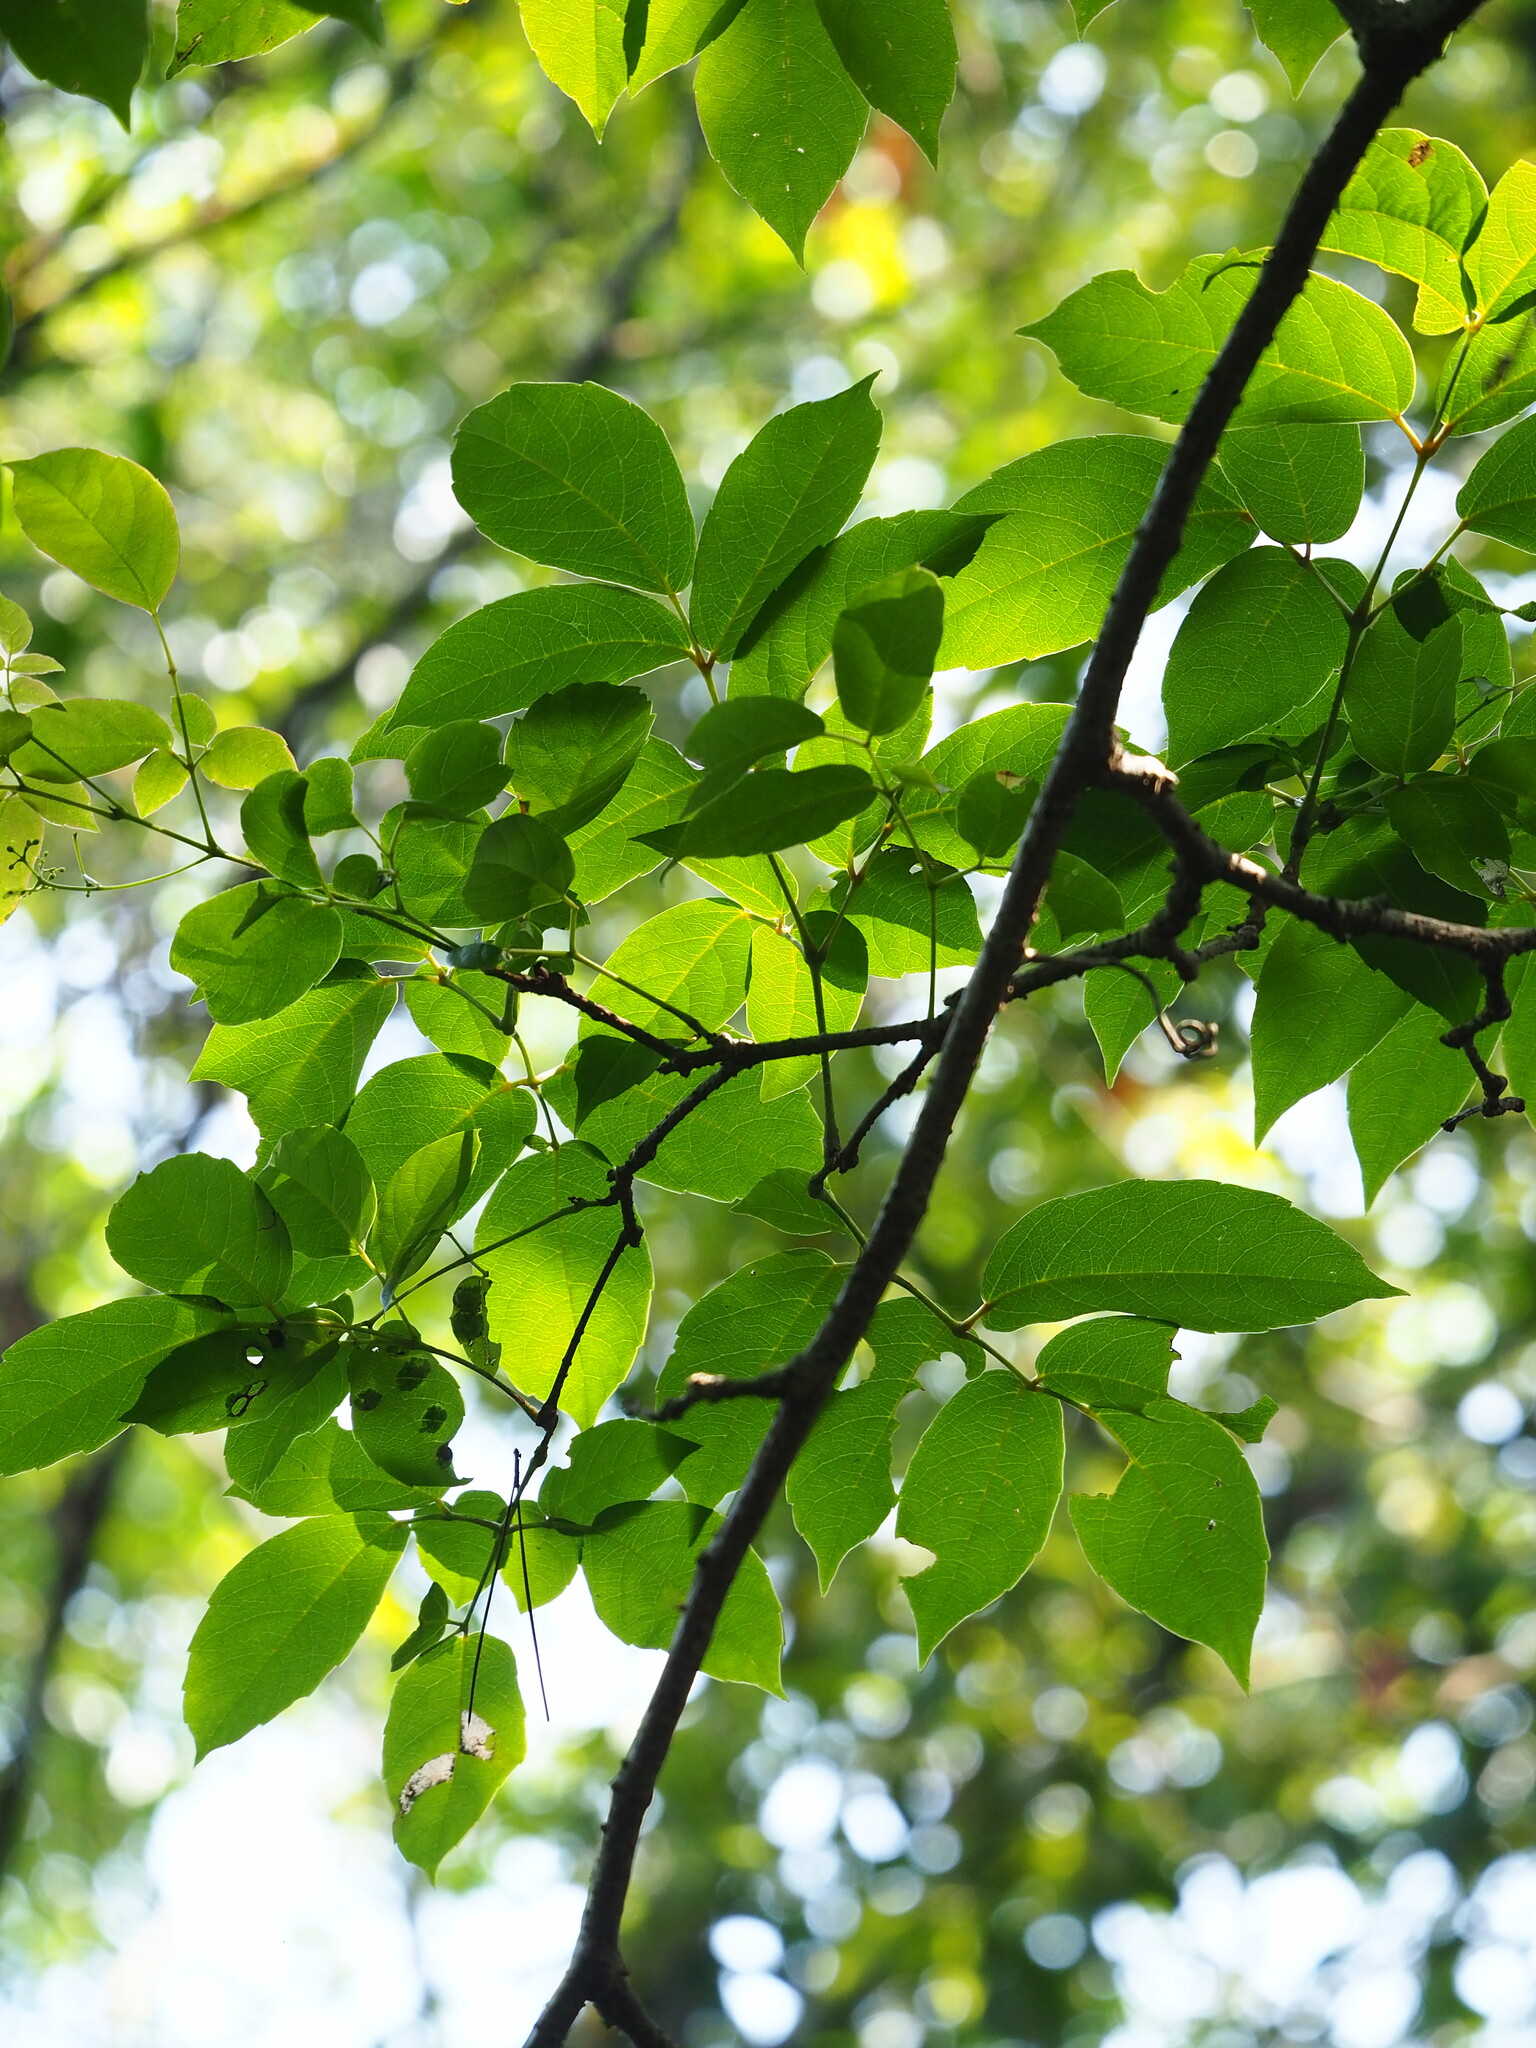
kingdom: Plantae
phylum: Tracheophyta
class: Magnoliopsida
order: Vitales
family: Vitaceae
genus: Nekemias
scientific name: Nekemias cantoniensis
